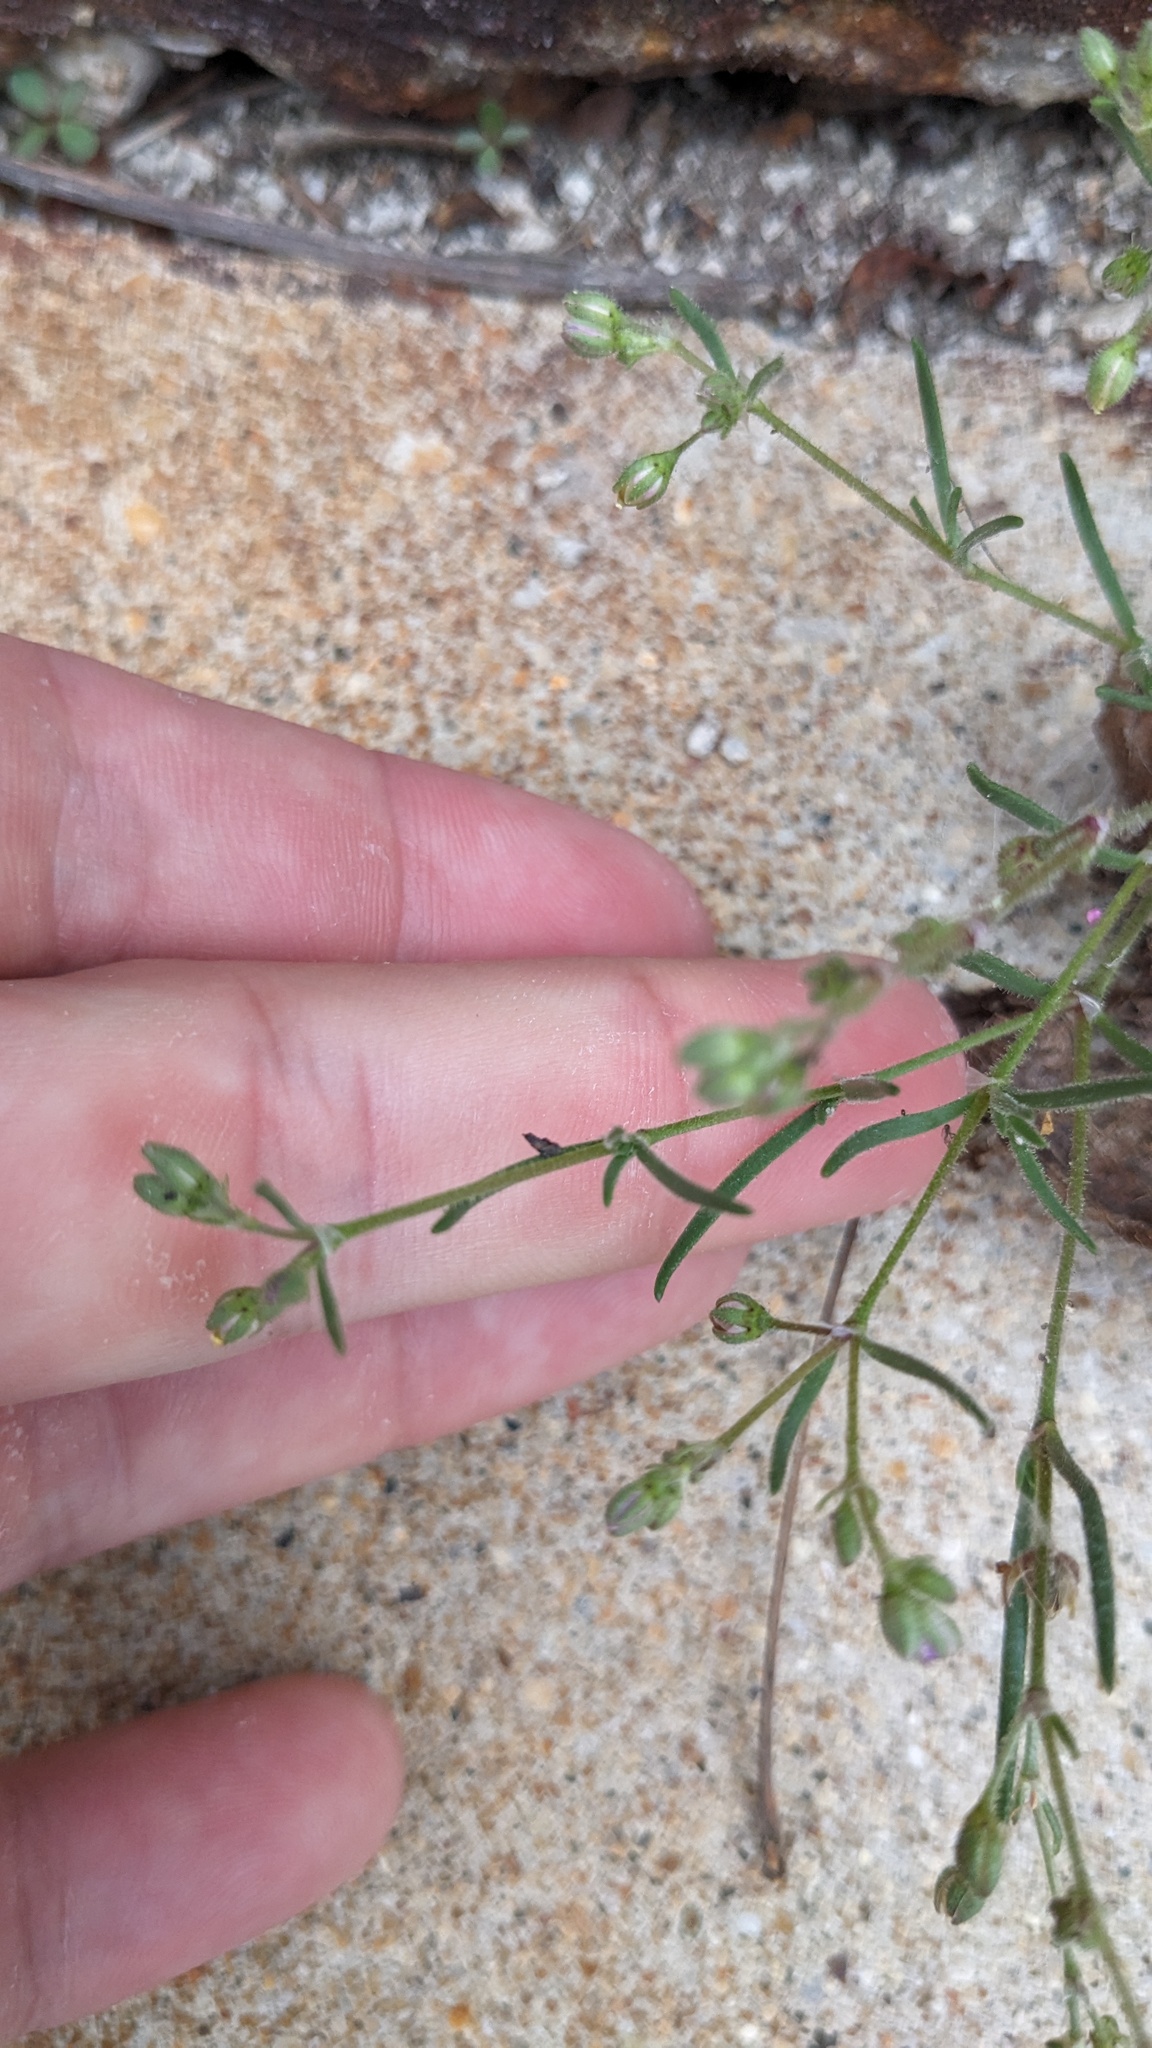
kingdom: Plantae
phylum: Tracheophyta
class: Magnoliopsida
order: Caryophyllales
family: Caryophyllaceae
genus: Spergularia
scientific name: Spergularia marina
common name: Lesser sea-spurrey
